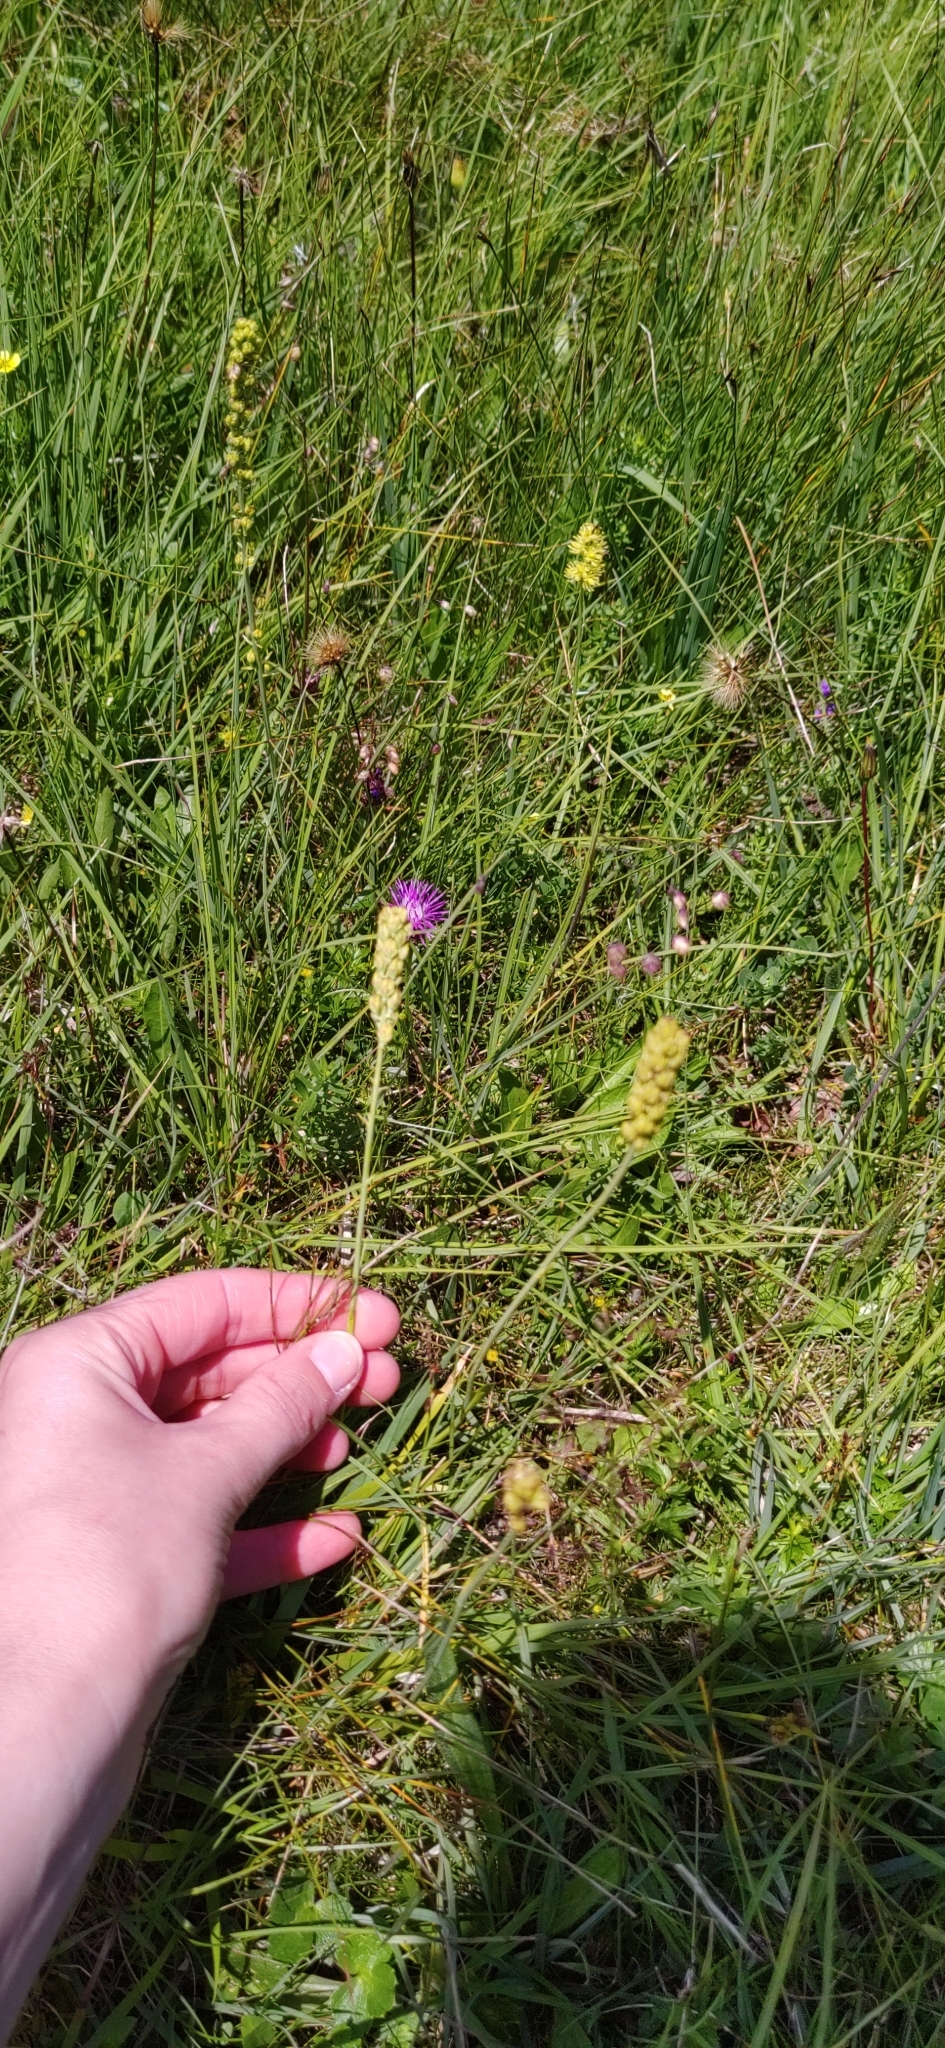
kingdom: Plantae
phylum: Tracheophyta
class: Liliopsida
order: Alismatales
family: Tofieldiaceae
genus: Tofieldia
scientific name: Tofieldia calyculata
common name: German-asphodel
